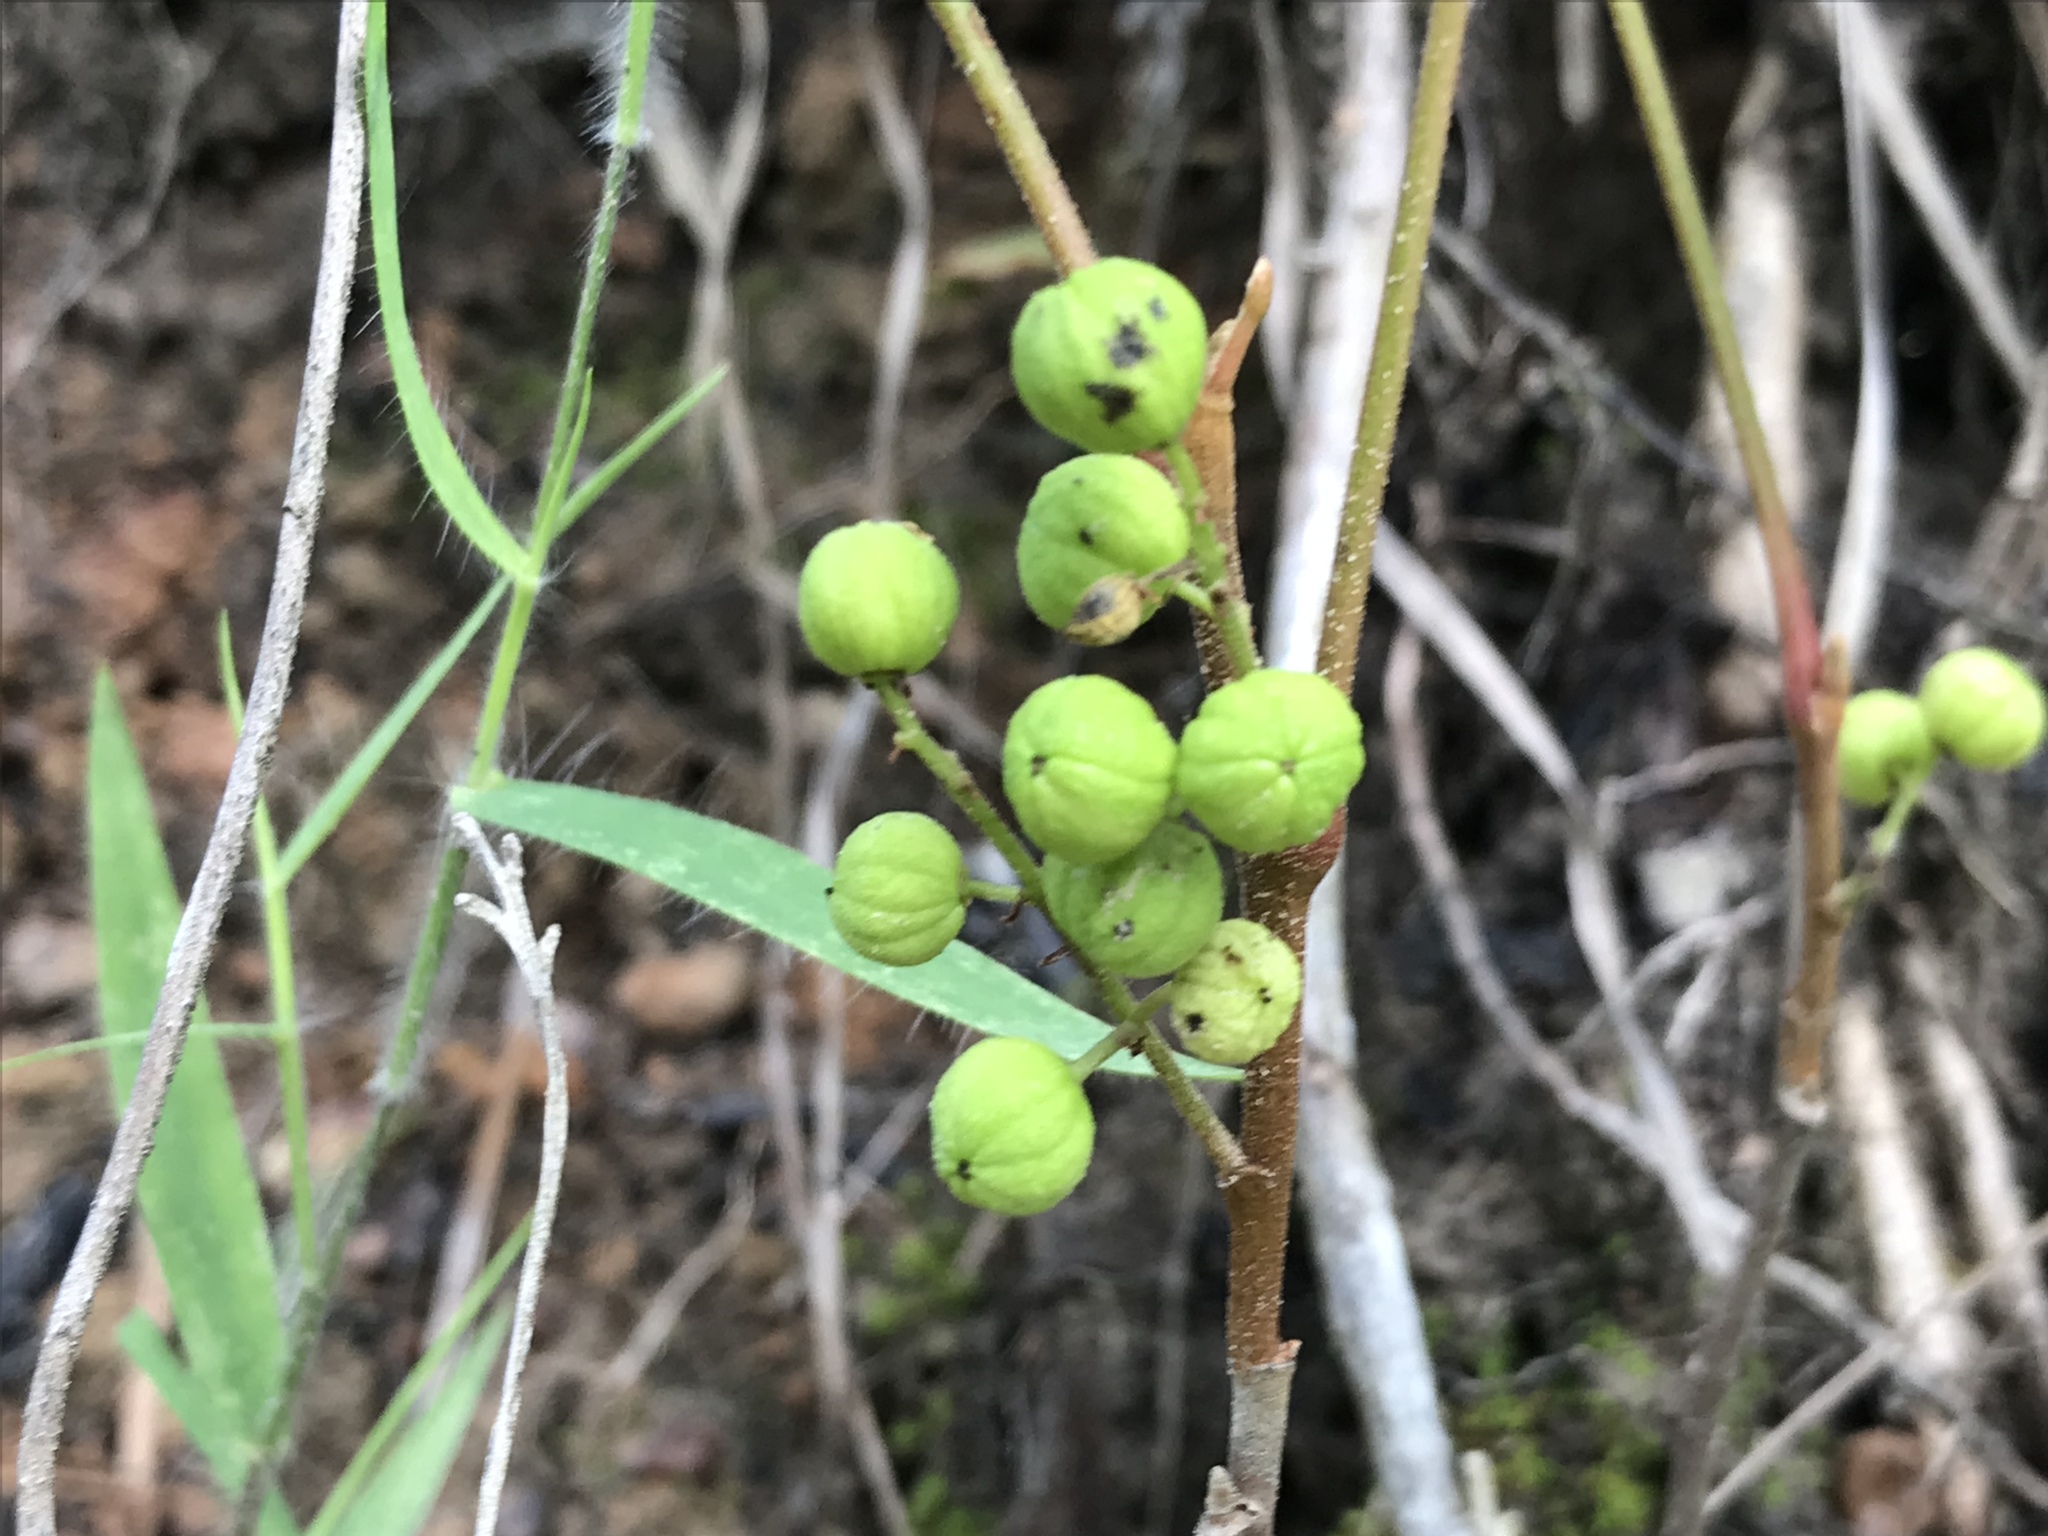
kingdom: Plantae
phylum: Tracheophyta
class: Magnoliopsida
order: Sapindales
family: Anacardiaceae
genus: Toxicodendron
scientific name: Toxicodendron radicans
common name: Poison ivy
